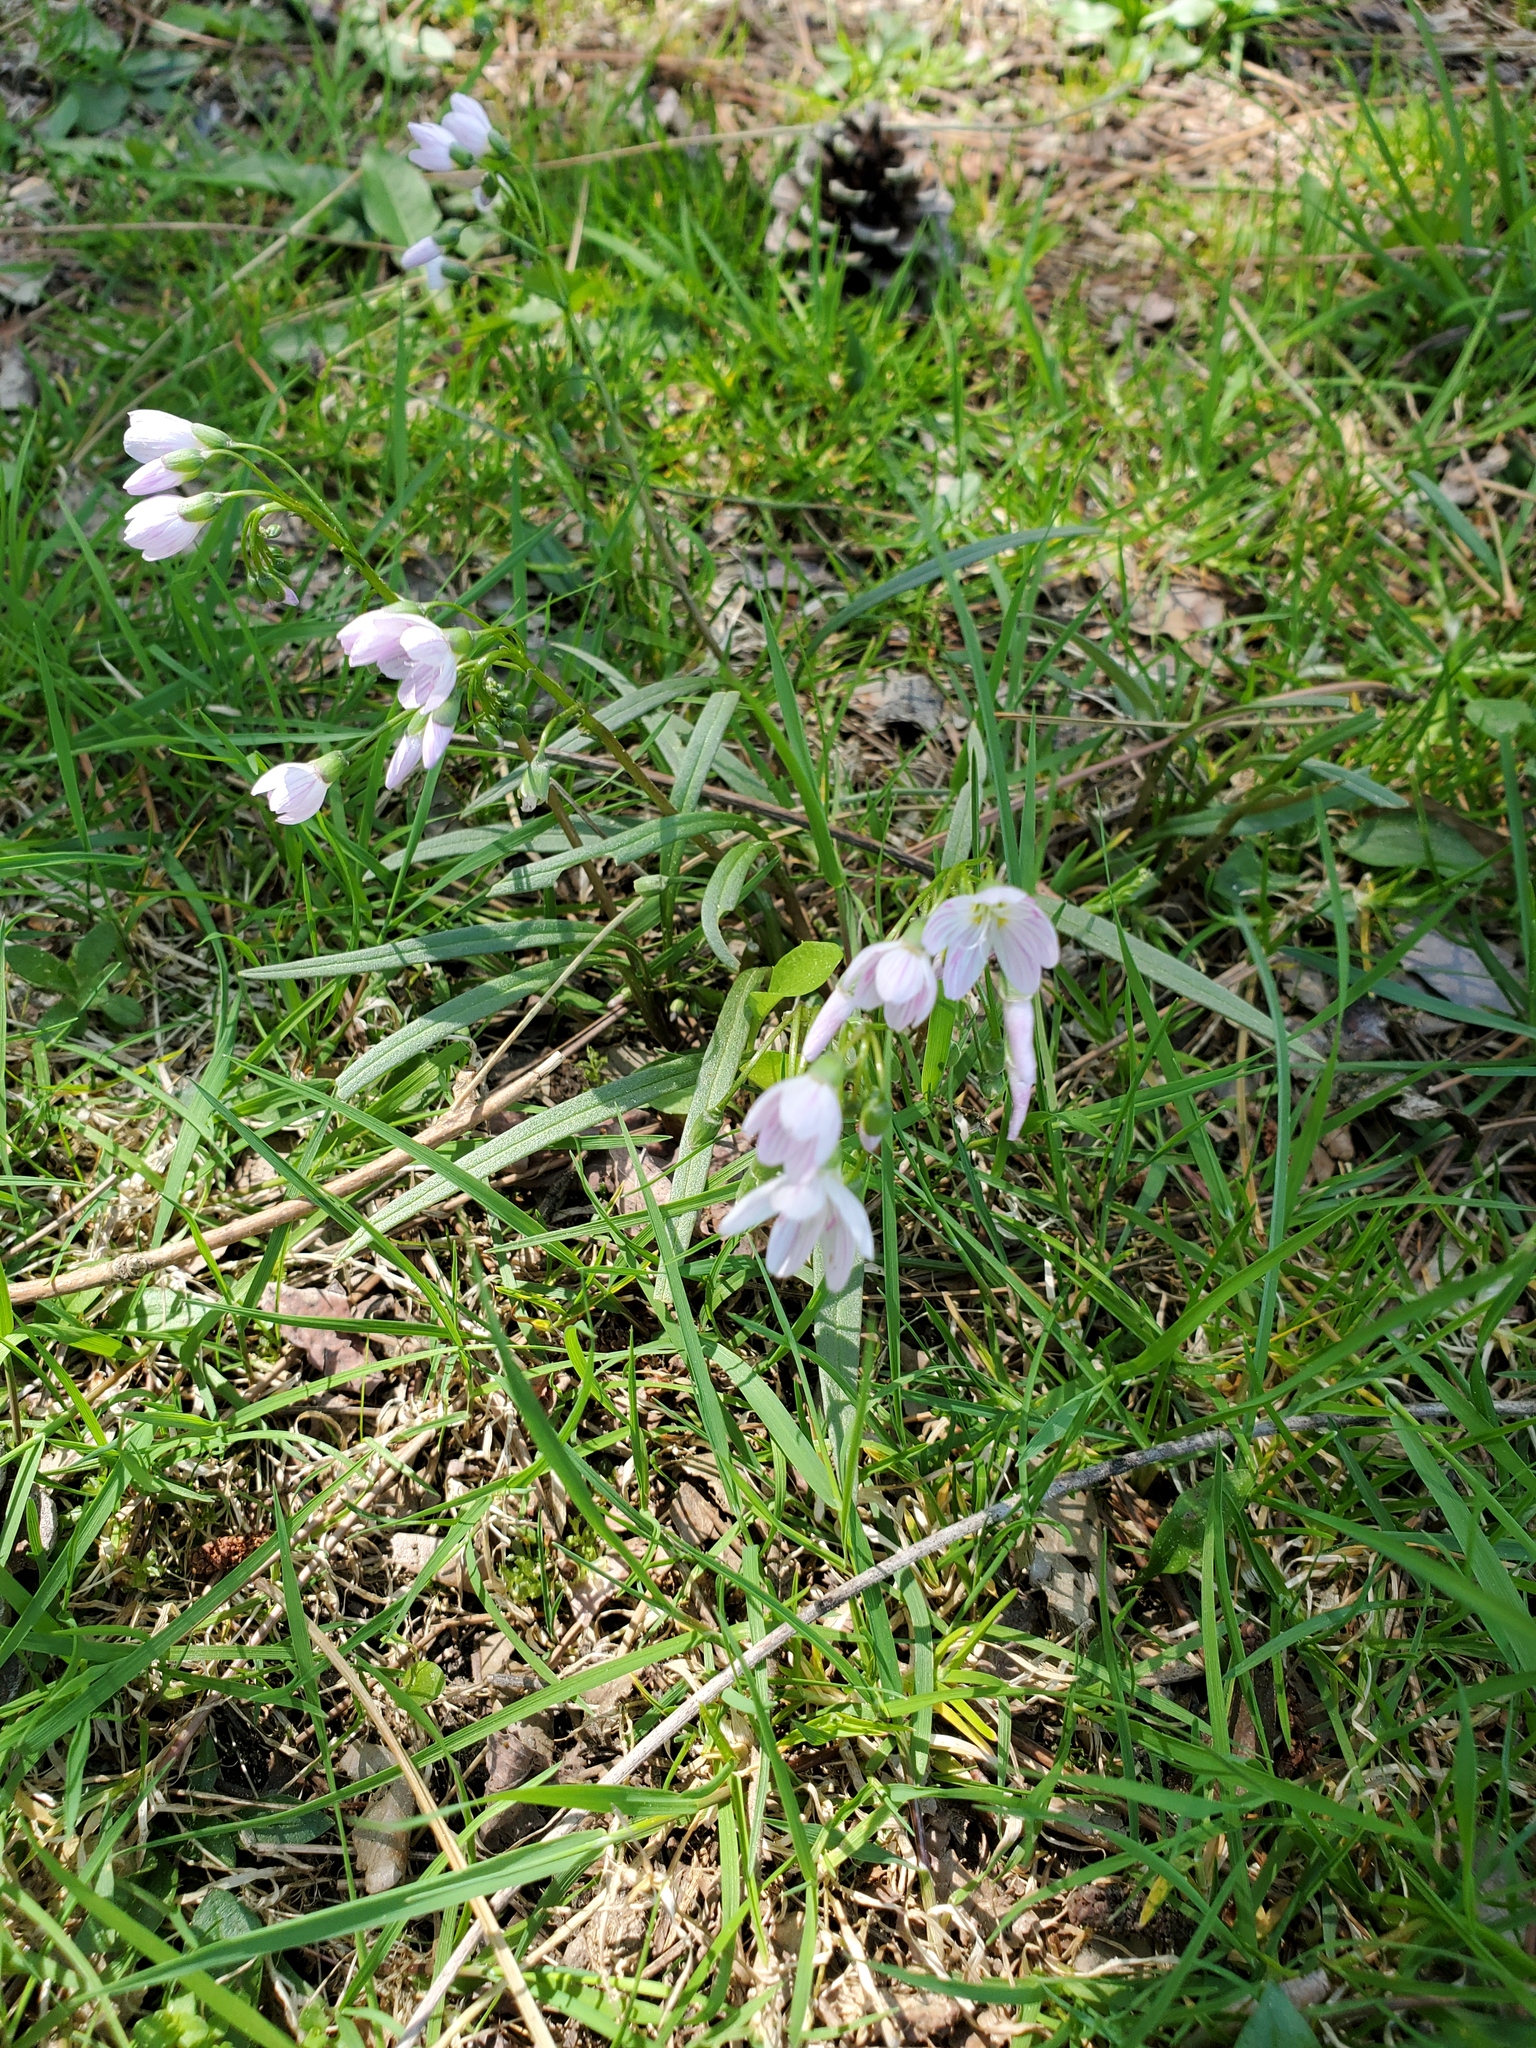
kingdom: Plantae
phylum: Tracheophyta
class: Magnoliopsida
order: Caryophyllales
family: Montiaceae
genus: Claytonia
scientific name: Claytonia virginica
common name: Virginia springbeauty
